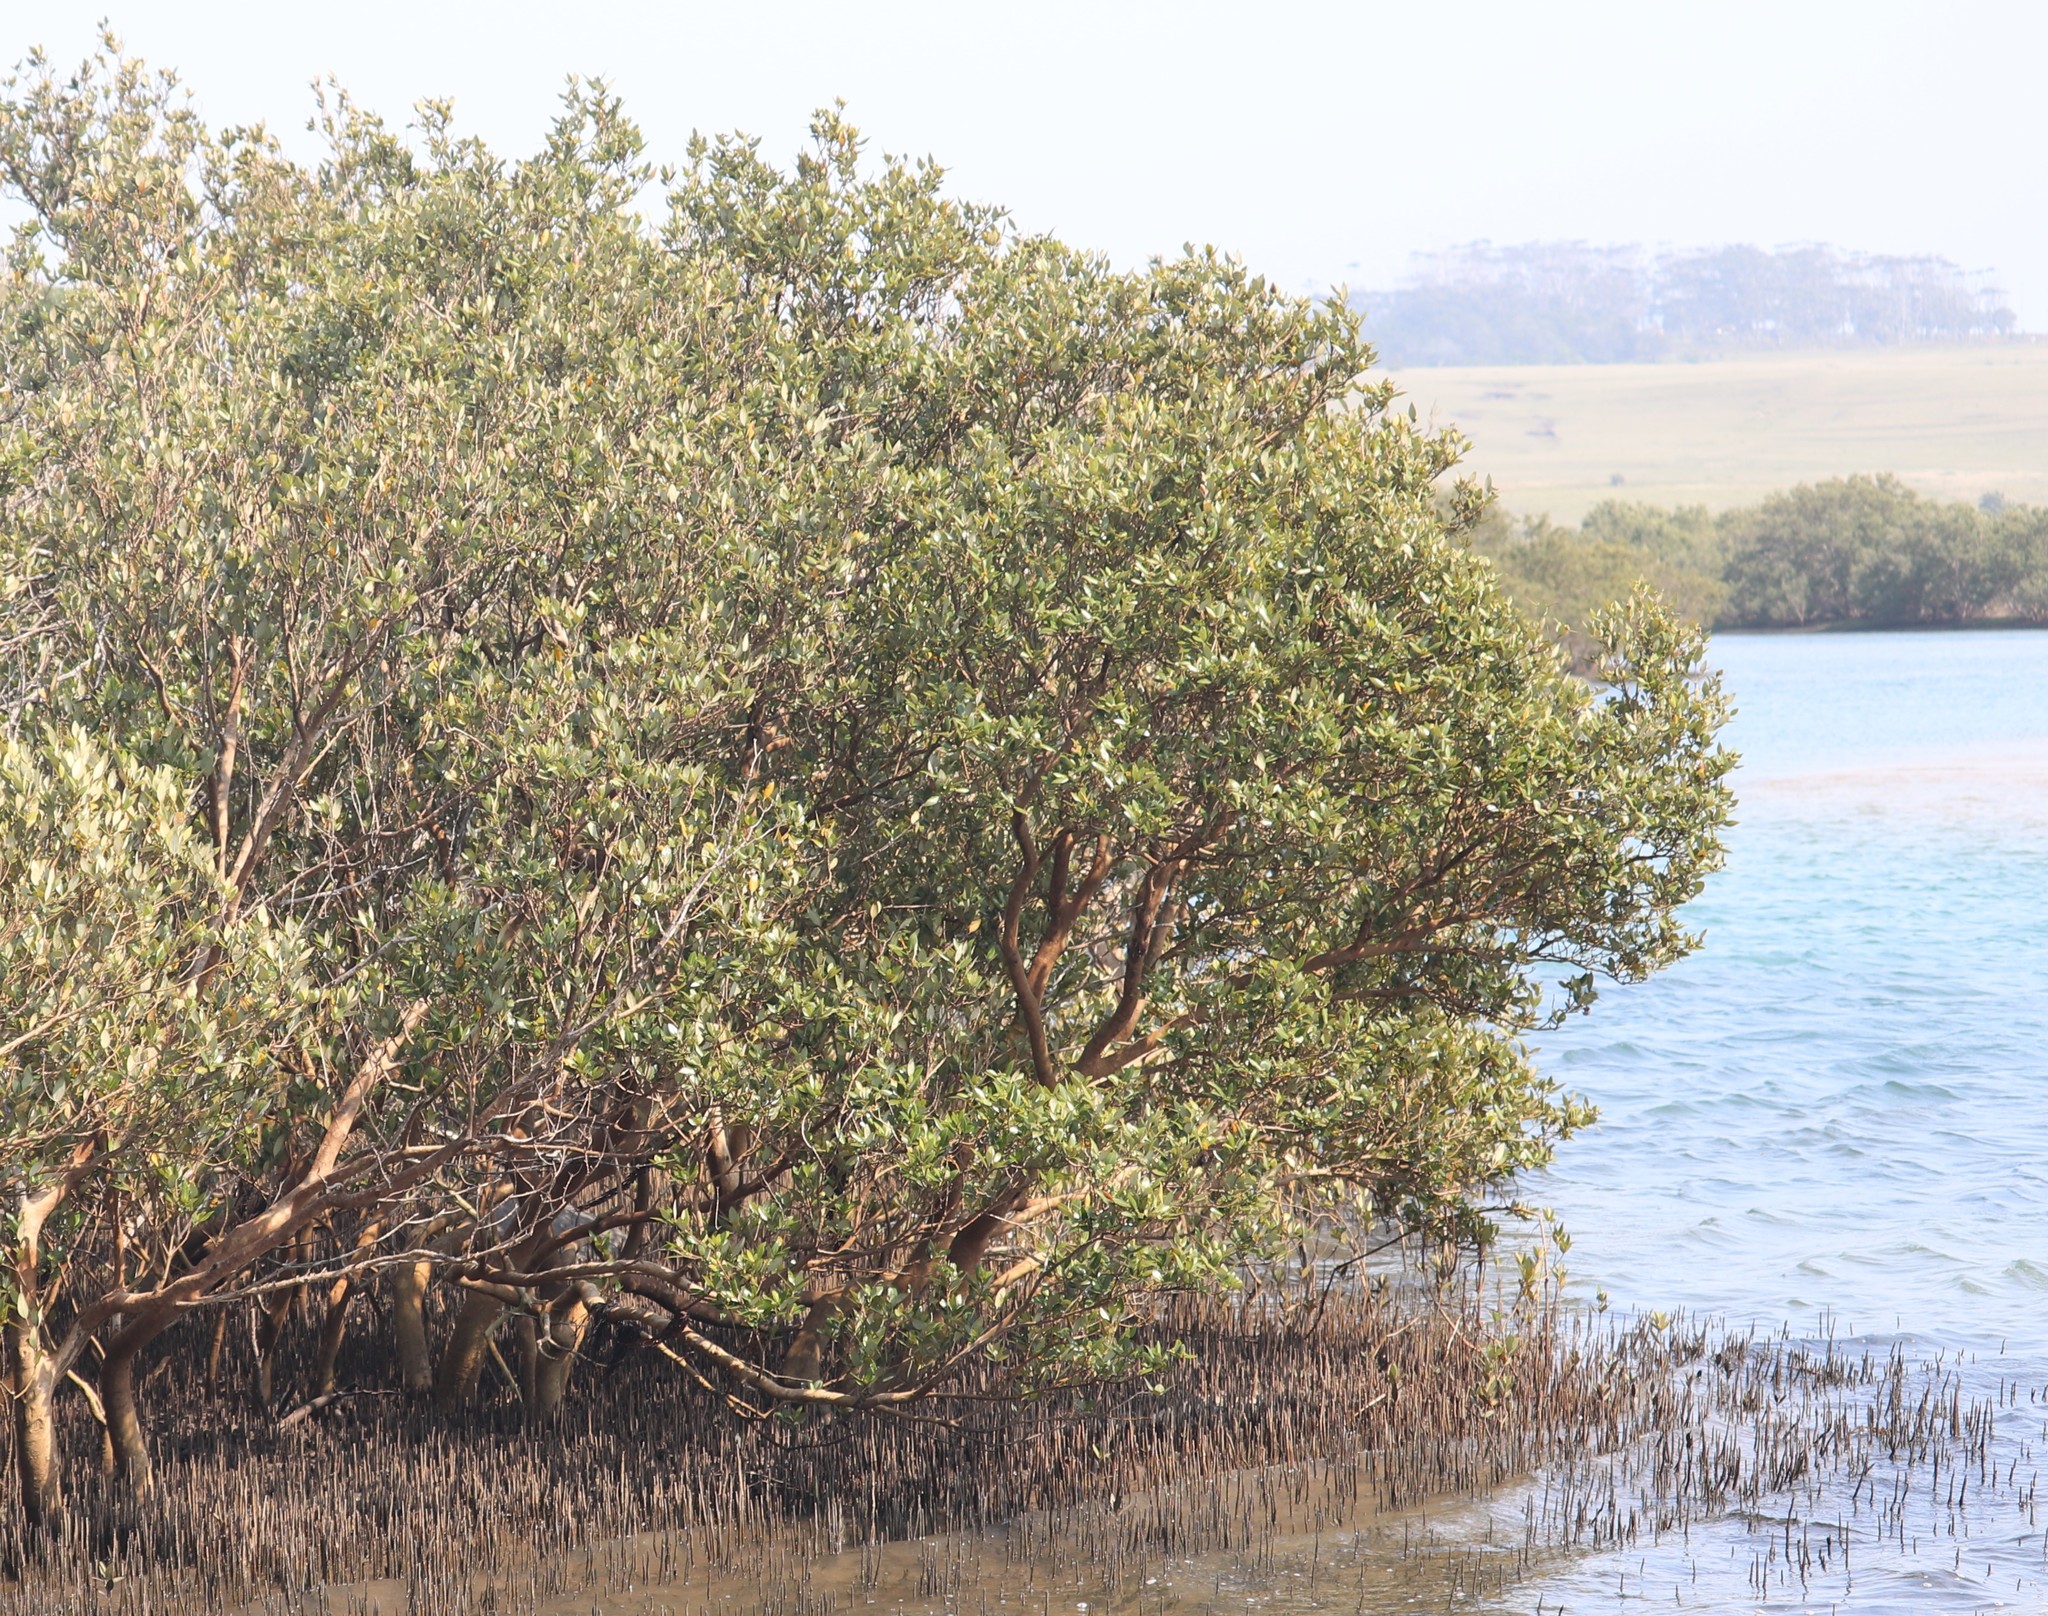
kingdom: Plantae
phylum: Tracheophyta
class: Magnoliopsida
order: Lamiales
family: Acanthaceae
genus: Avicennia
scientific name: Avicennia marina
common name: Gray mangrove
